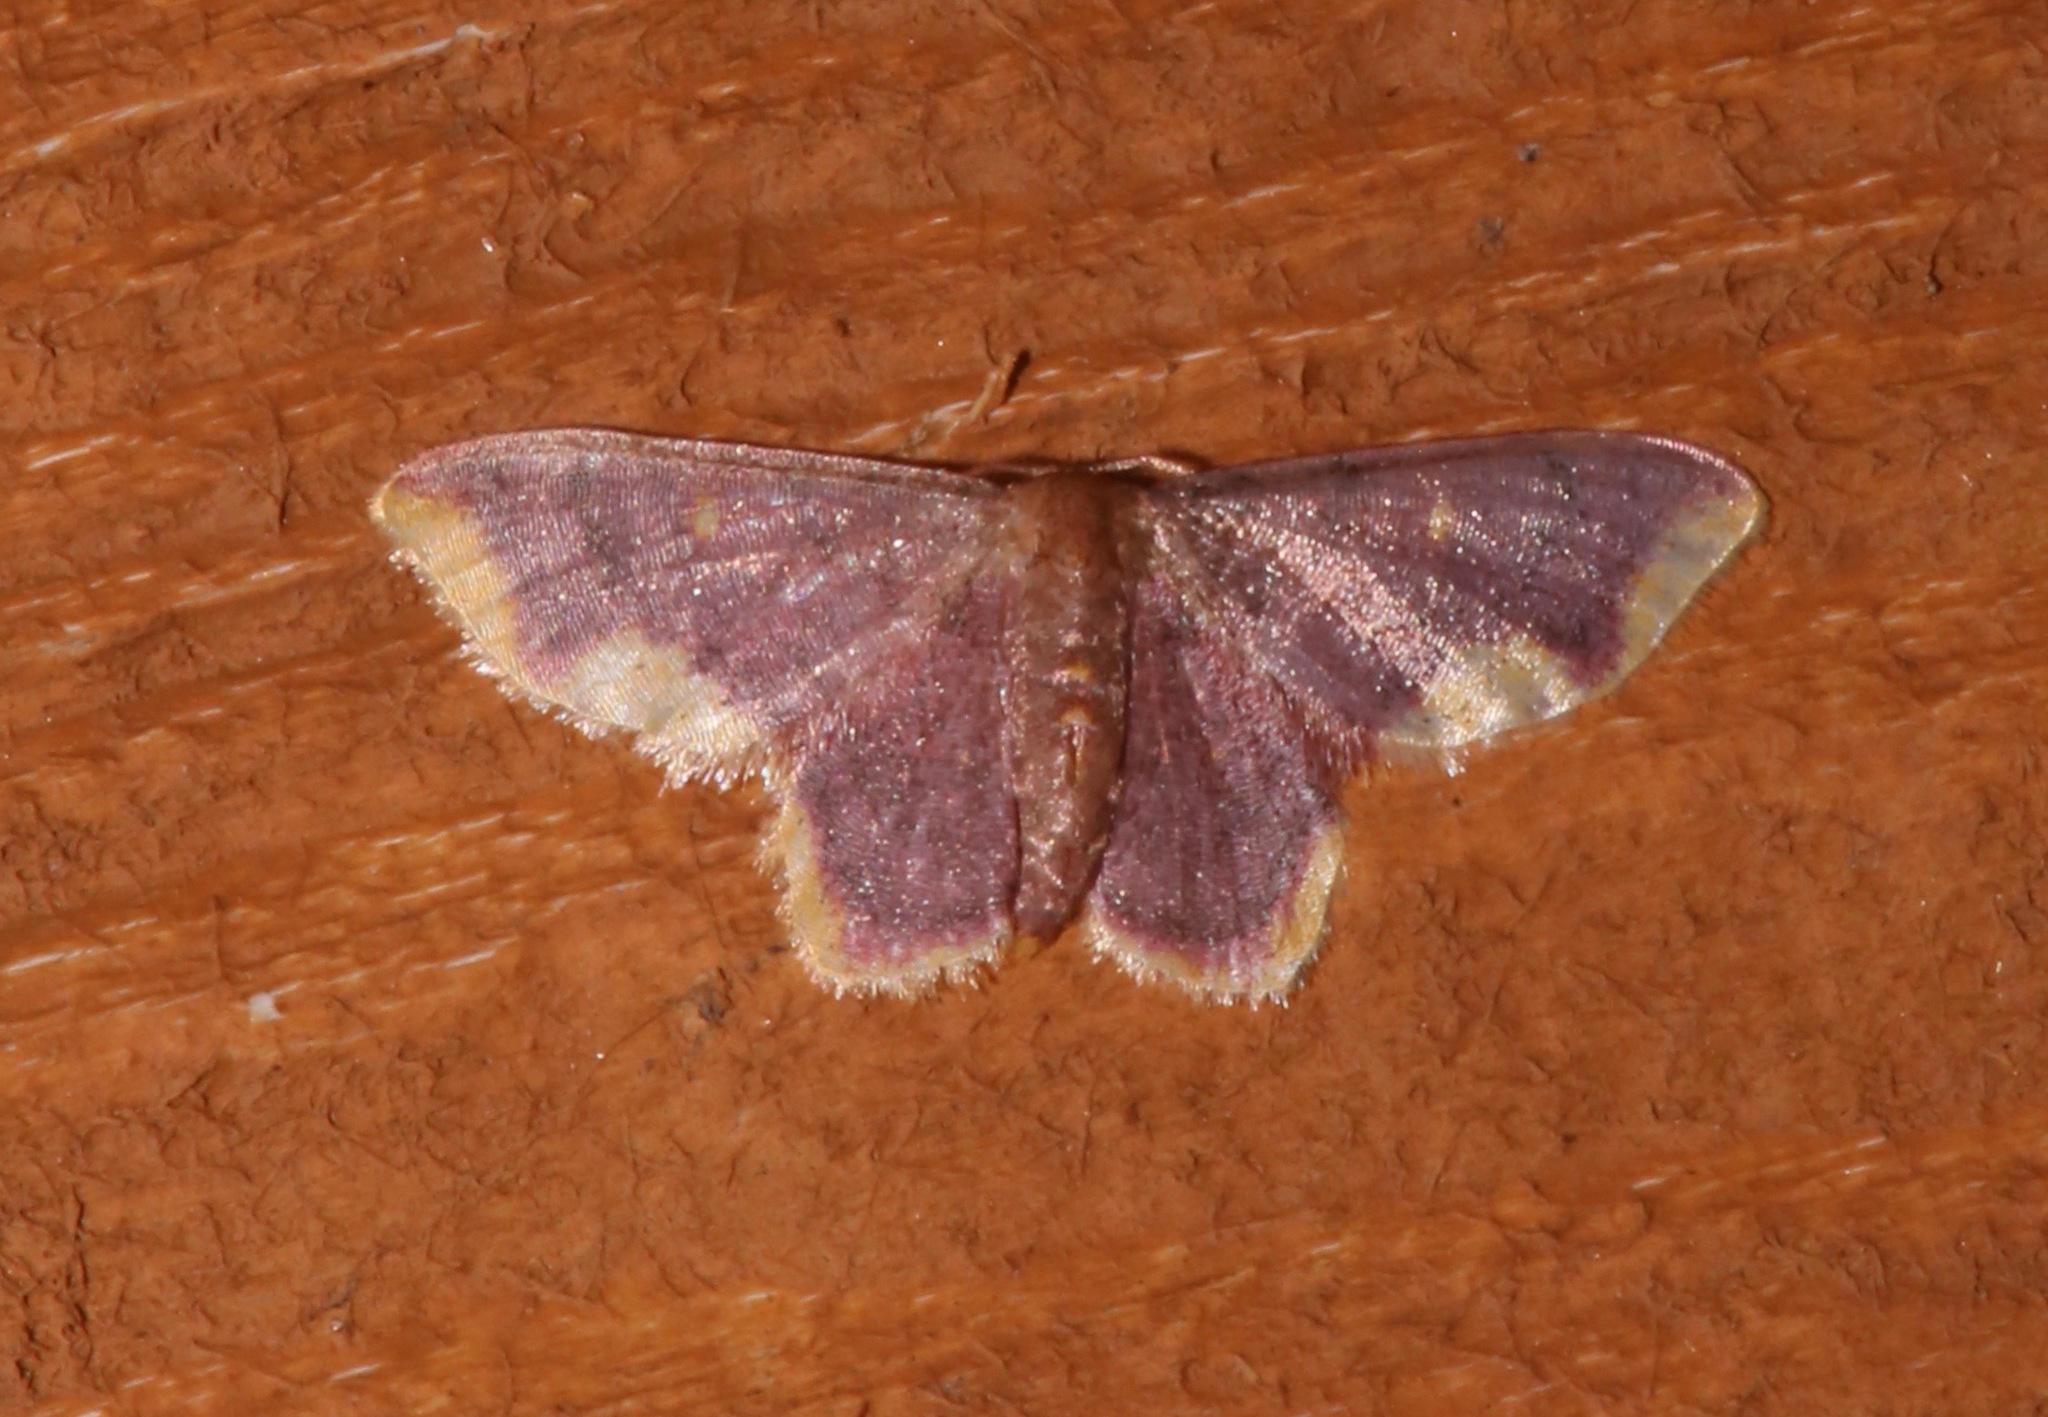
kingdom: Animalia
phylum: Arthropoda
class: Insecta
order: Lepidoptera
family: Geometridae
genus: Lophosis
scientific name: Lophosis labeculata
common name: Stained lophosis moth
